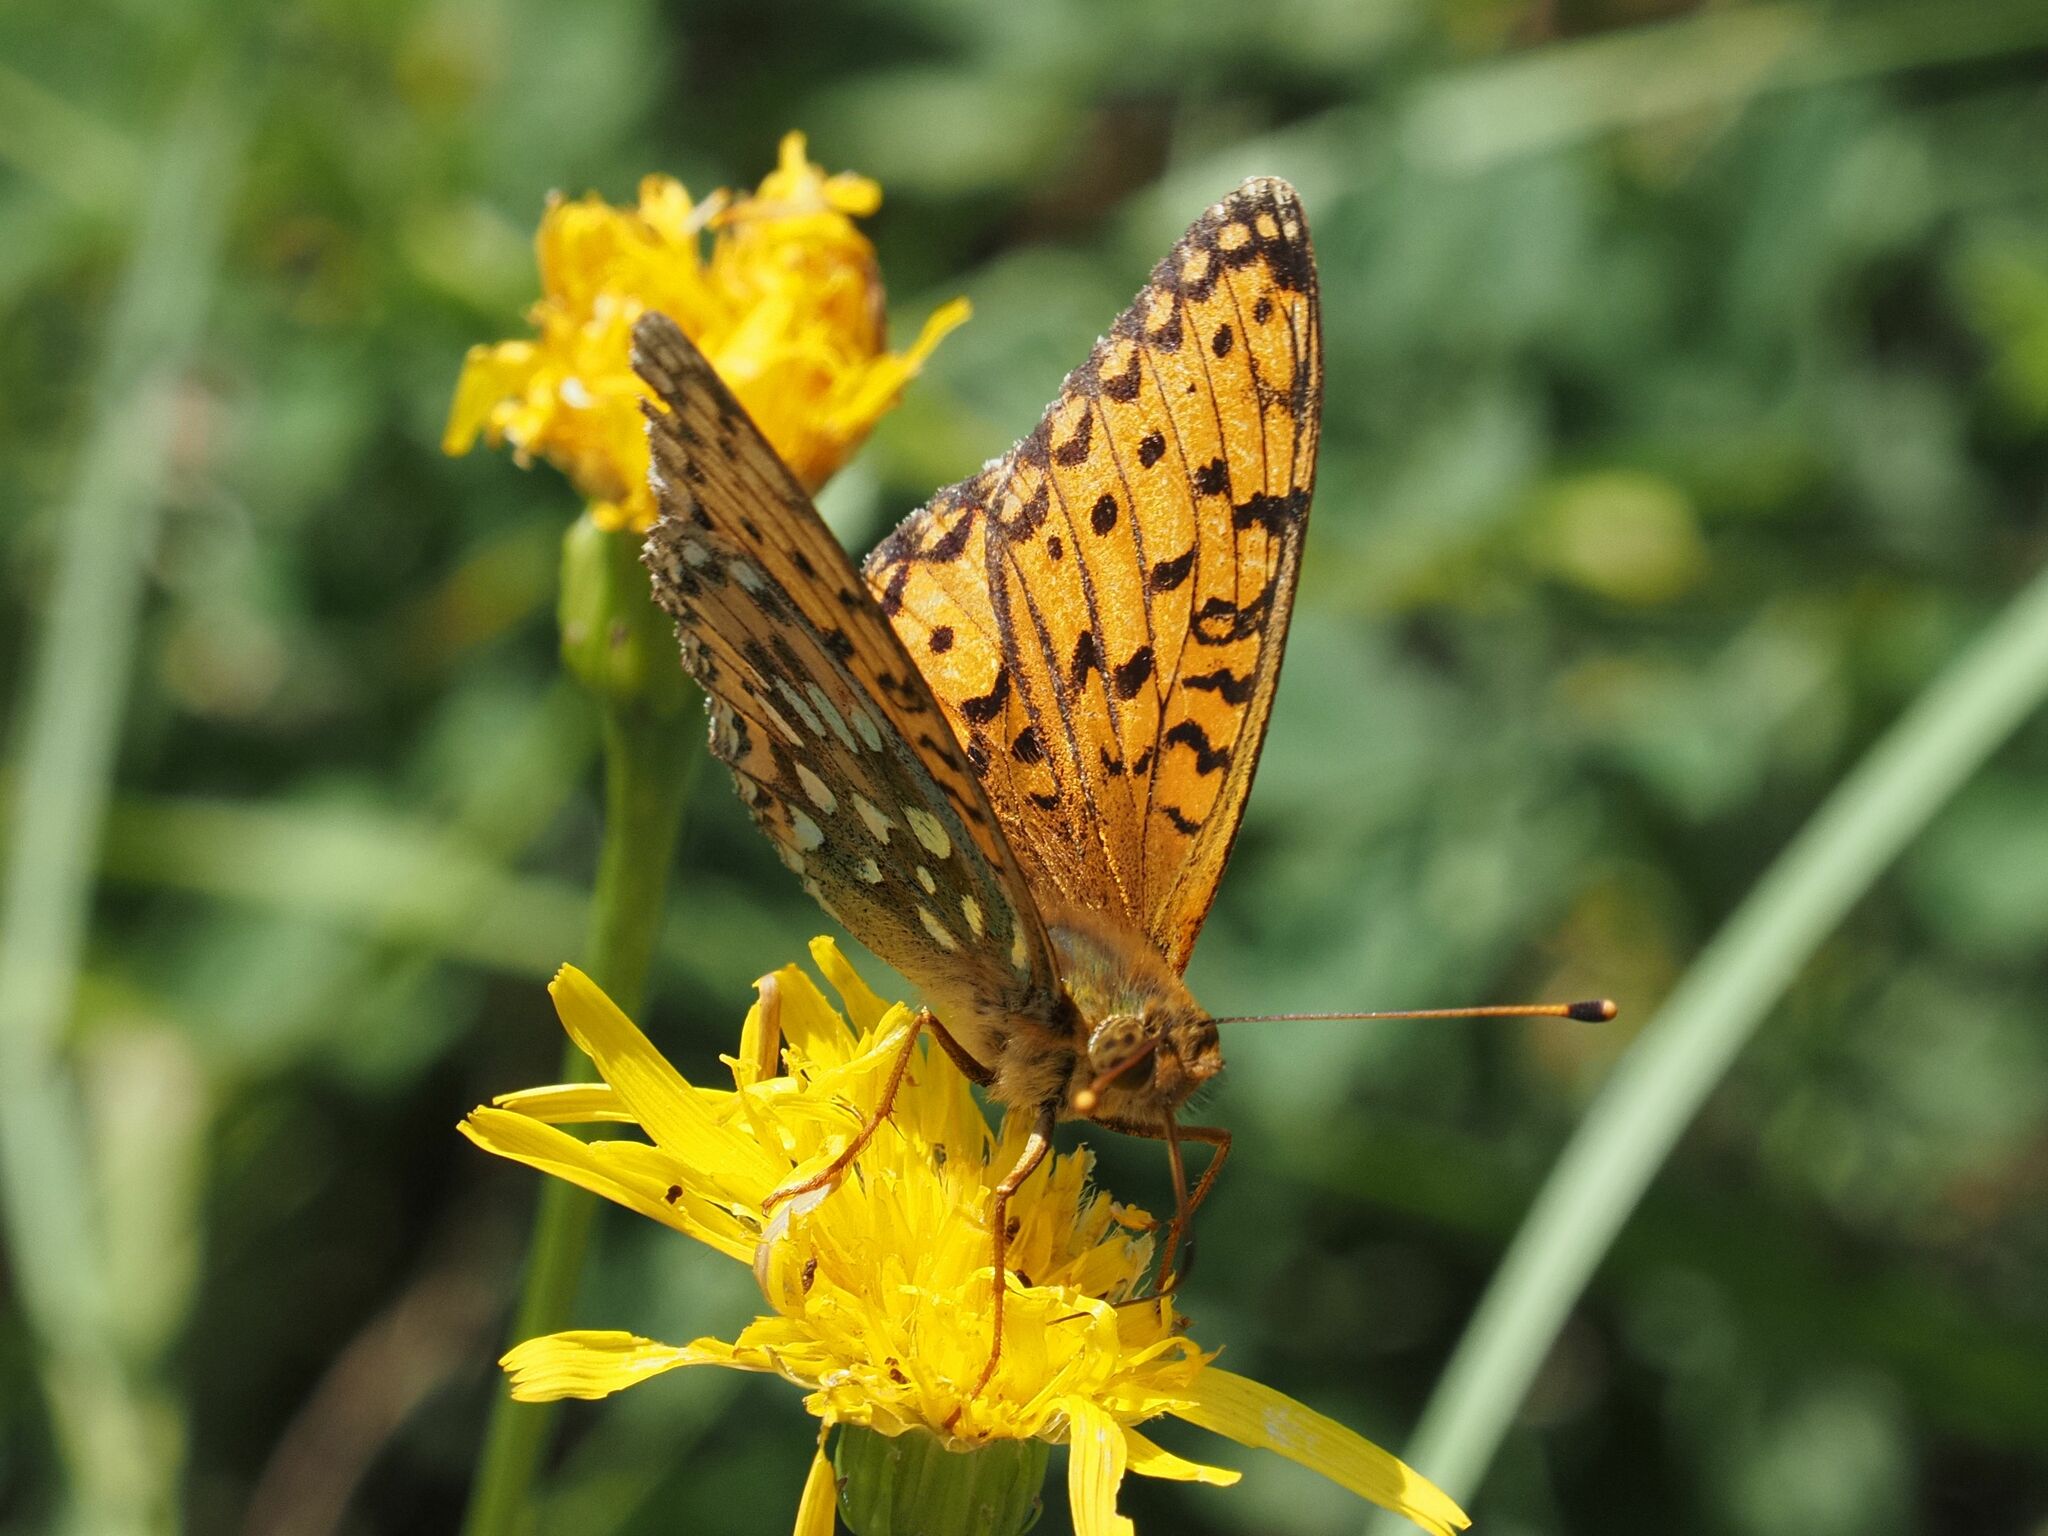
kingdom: Animalia
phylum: Arthropoda
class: Insecta
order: Lepidoptera
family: Nymphalidae
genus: Speyeria
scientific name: Speyeria aglaja
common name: Dark green fritillary
